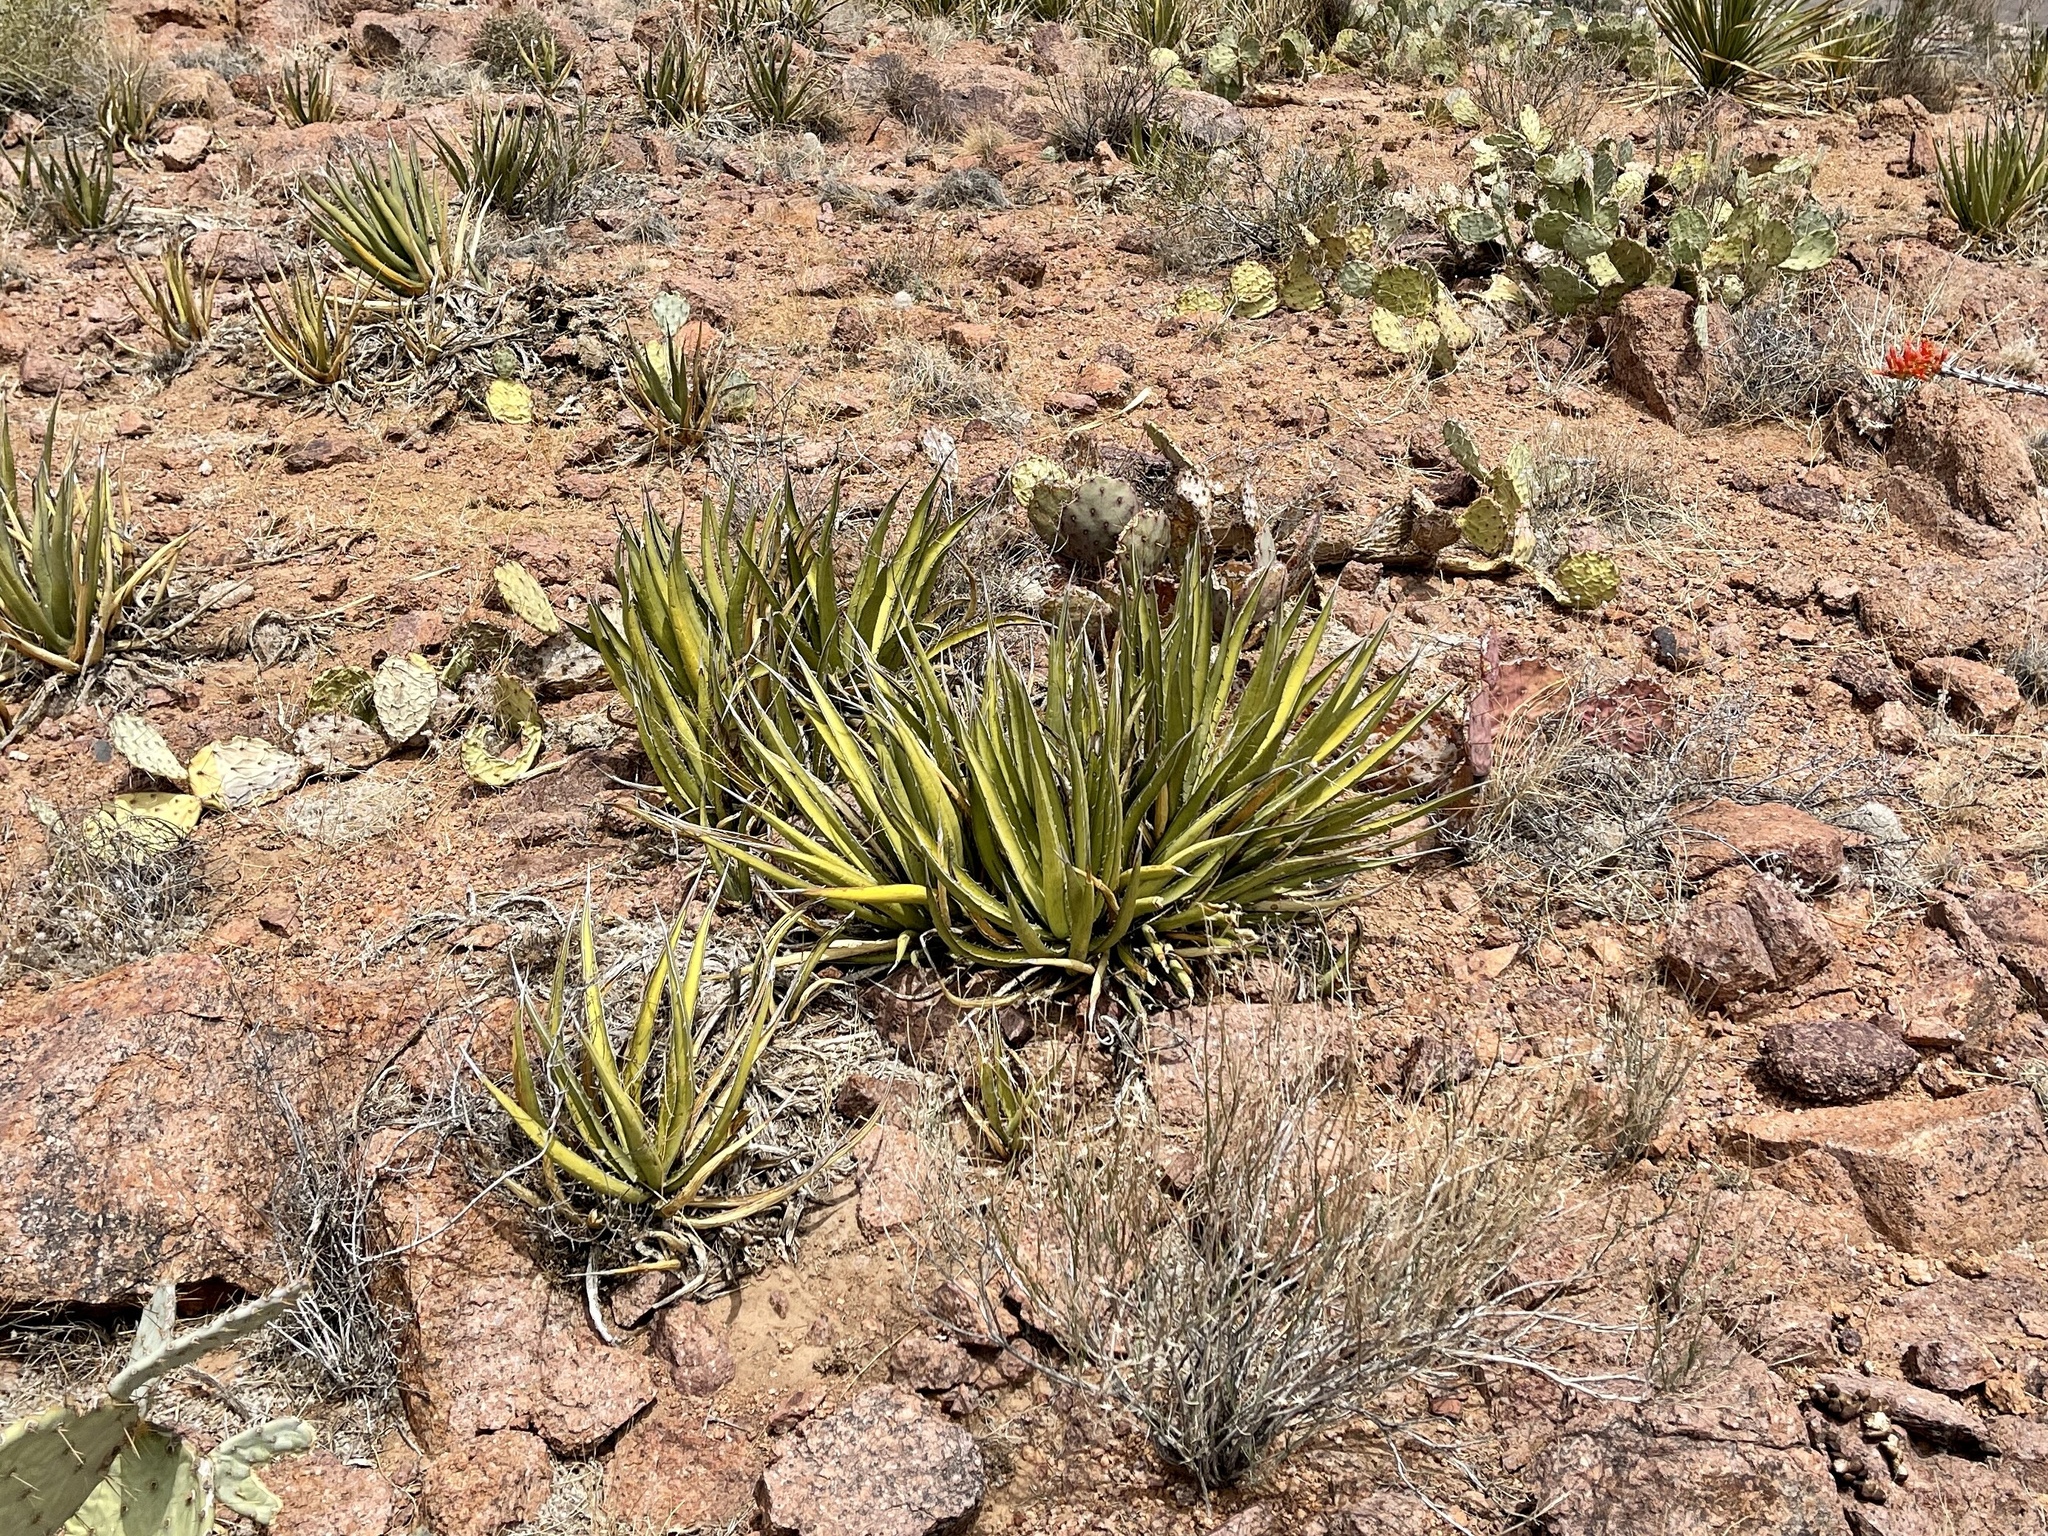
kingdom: Plantae
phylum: Tracheophyta
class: Liliopsida
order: Asparagales
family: Asparagaceae
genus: Agave
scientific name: Agave lechuguilla
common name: Lecheguilla agave
